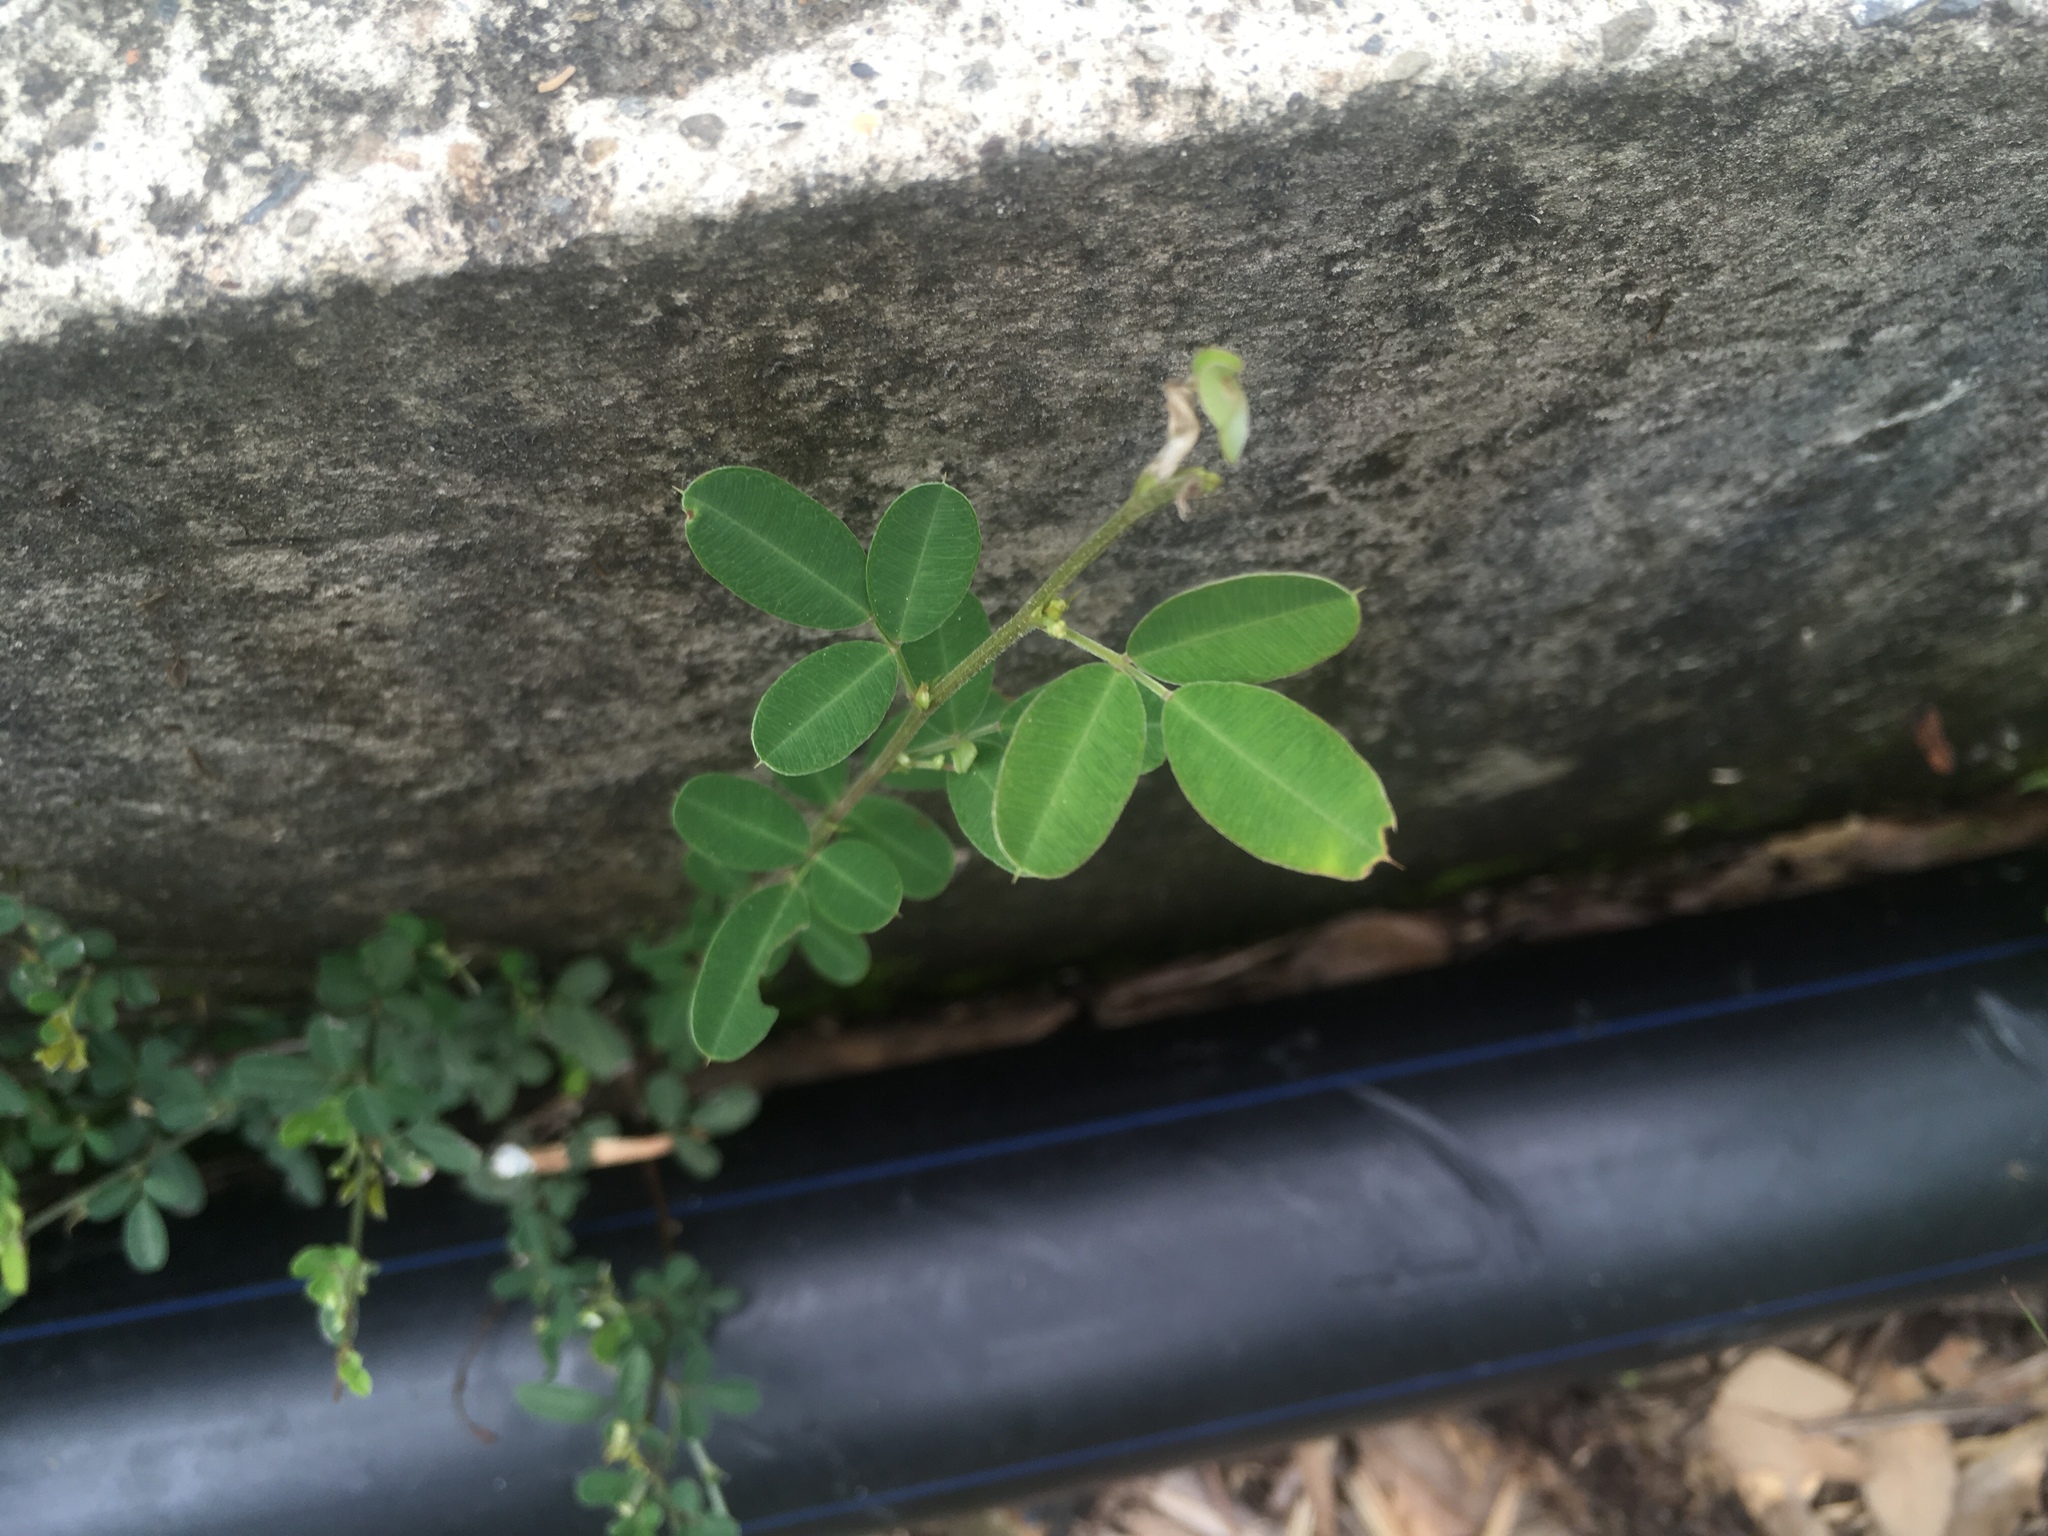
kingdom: Plantae
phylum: Tracheophyta
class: Magnoliopsida
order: Fabales
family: Fabaceae
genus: Campylotropis
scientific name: Campylotropis macrocarpa
